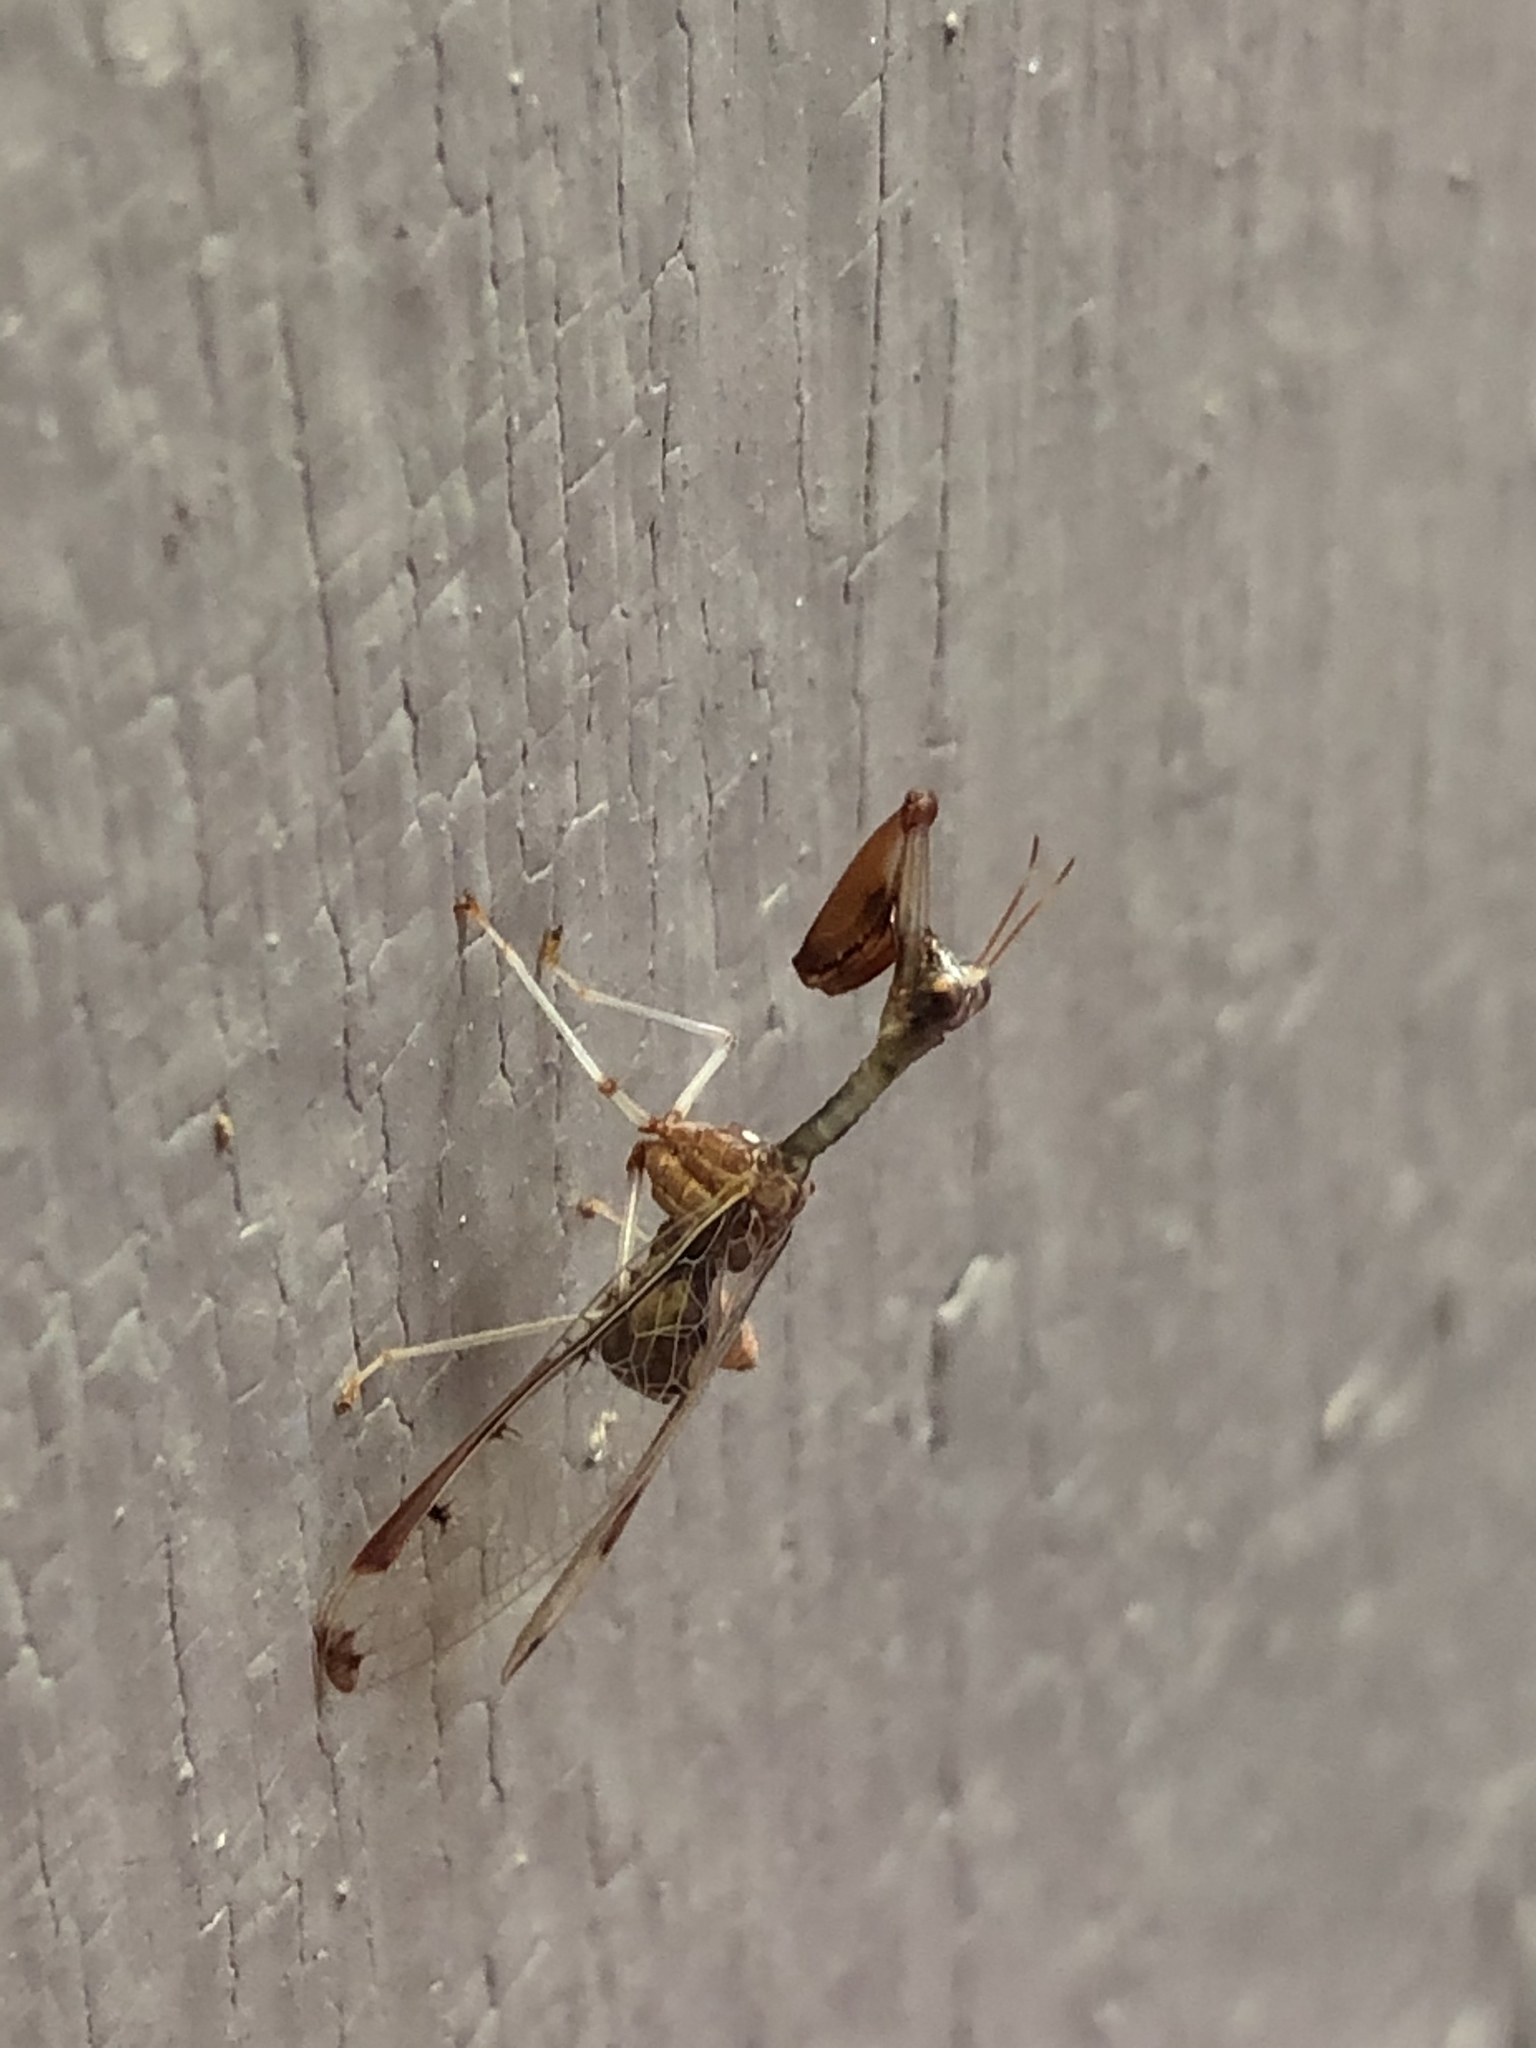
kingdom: Animalia
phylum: Arthropoda
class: Insecta
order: Neuroptera
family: Mantispidae
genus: Dicromantispa
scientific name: Dicromantispa interrupta
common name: Four-spotted mantidfly
